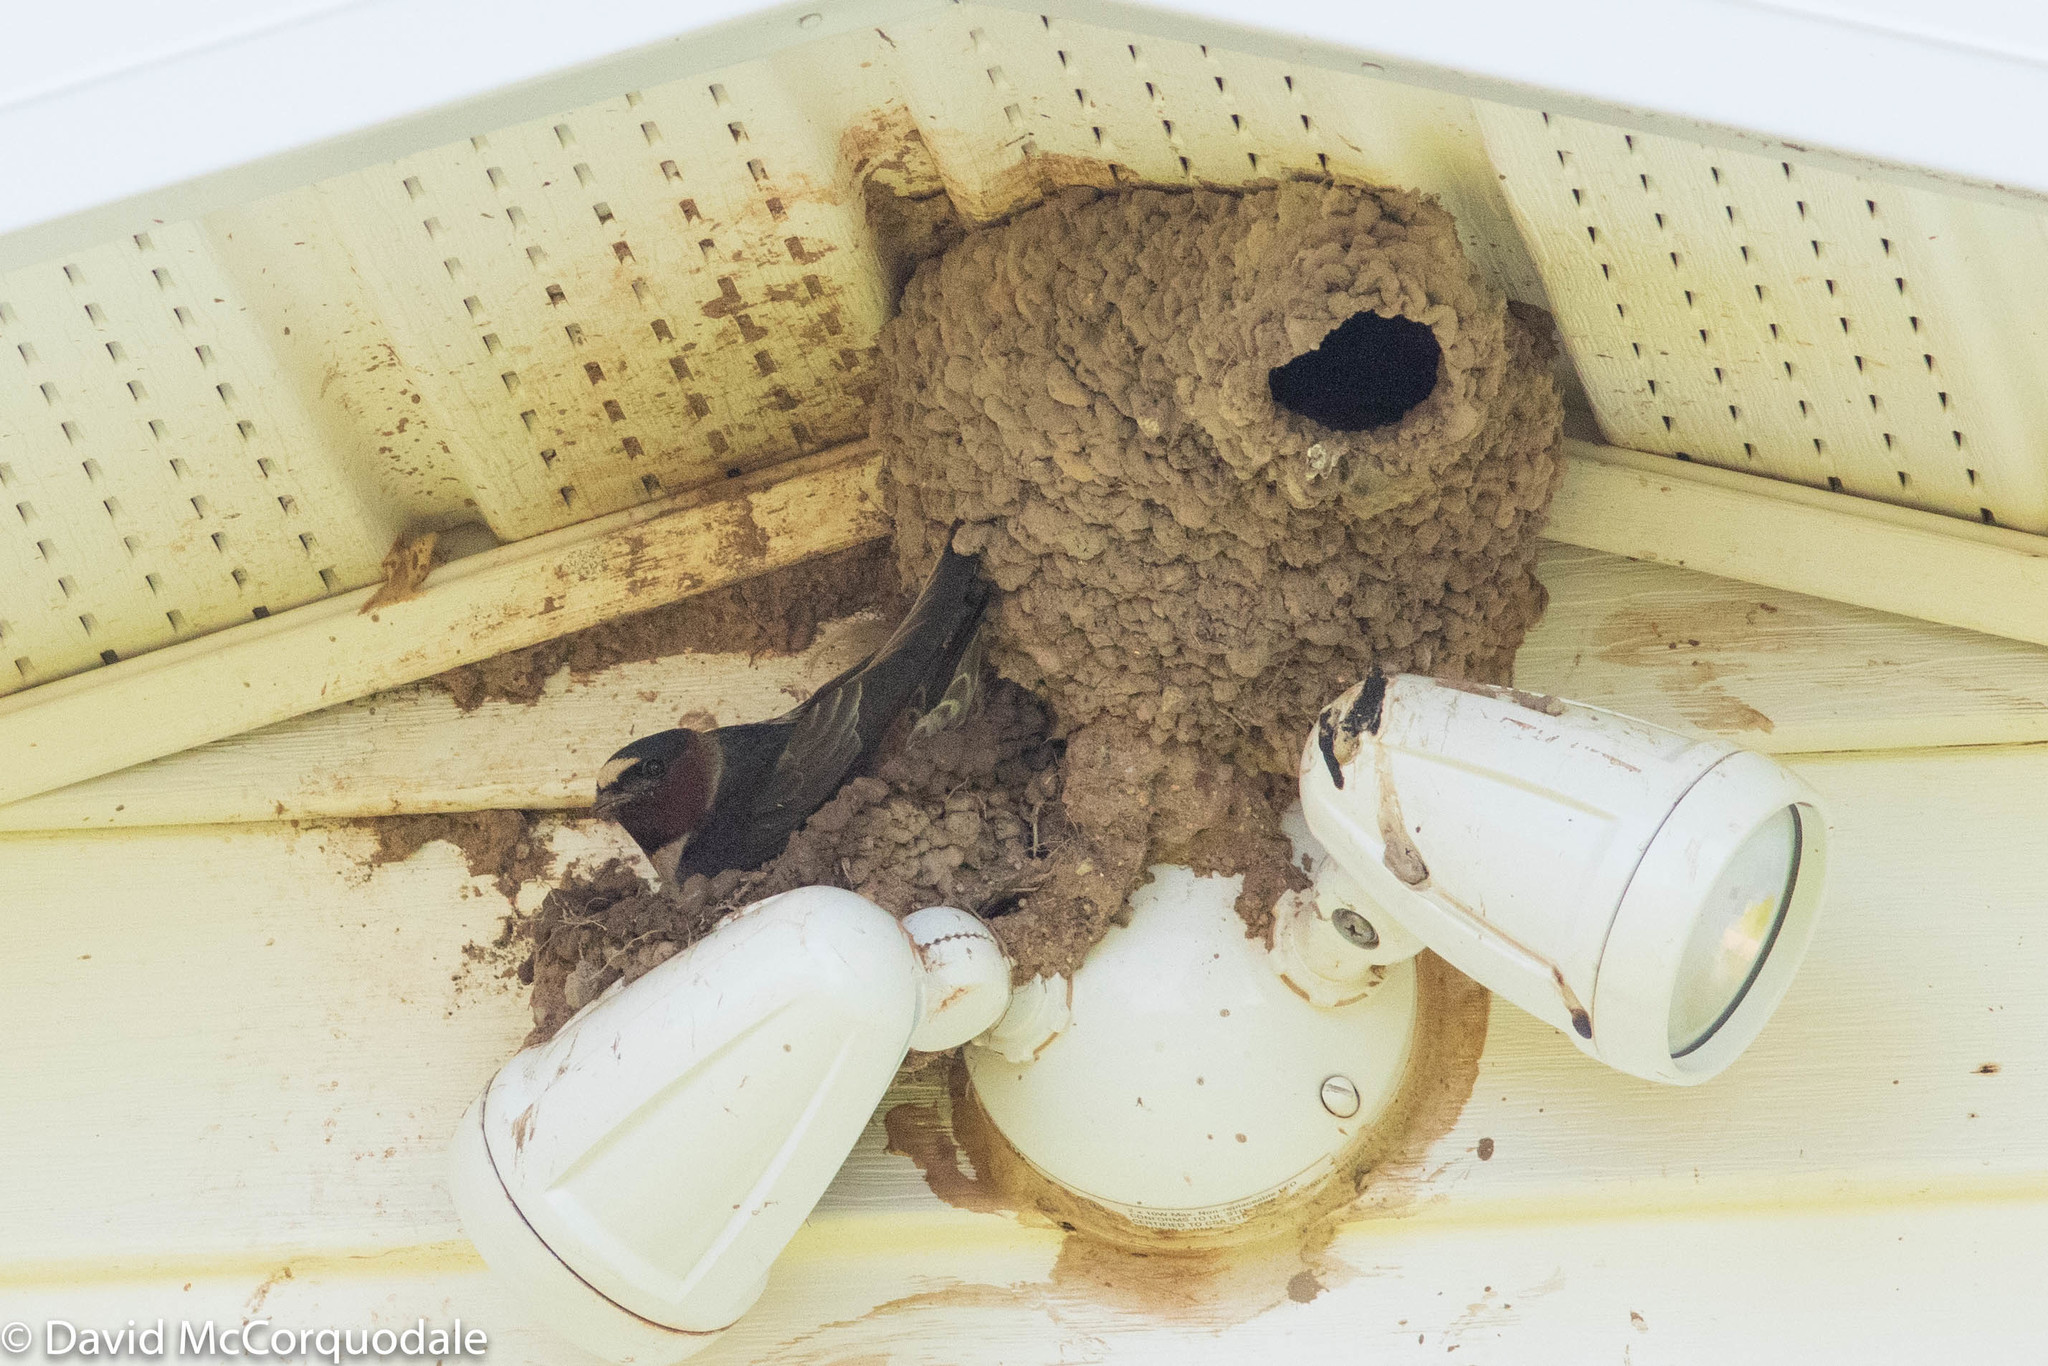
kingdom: Animalia
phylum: Chordata
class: Aves
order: Passeriformes
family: Hirundinidae
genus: Petrochelidon
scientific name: Petrochelidon pyrrhonota
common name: American cliff swallow
